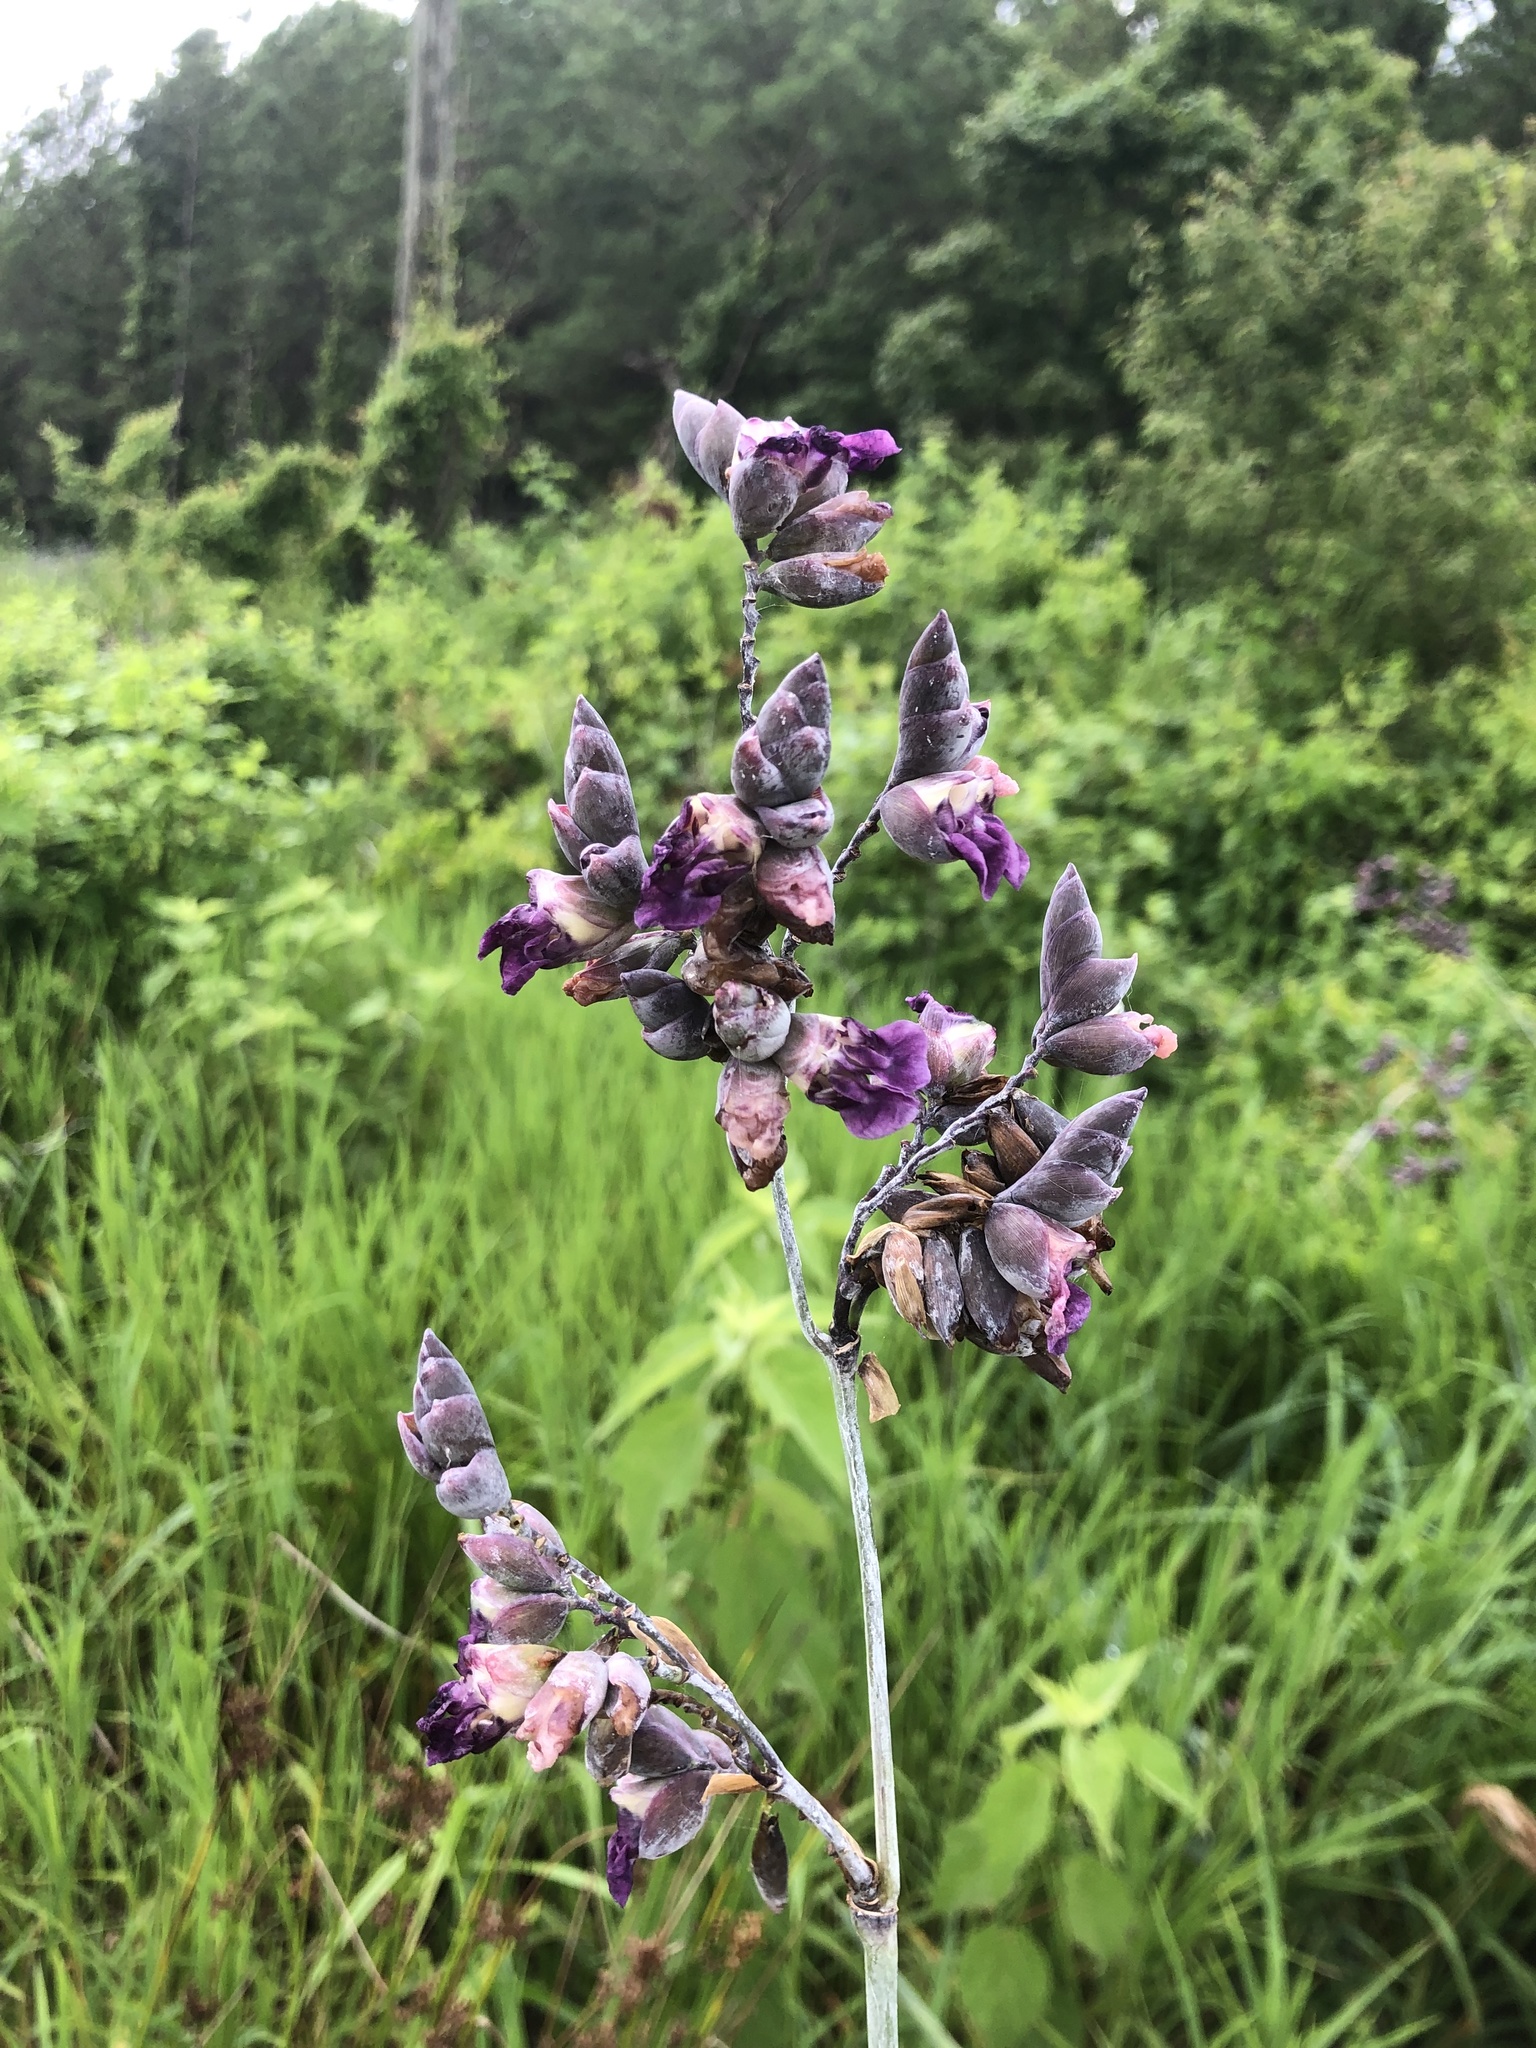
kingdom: Plantae
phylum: Tracheophyta
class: Liliopsida
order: Zingiberales
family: Marantaceae
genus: Thalia
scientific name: Thalia dealbata
